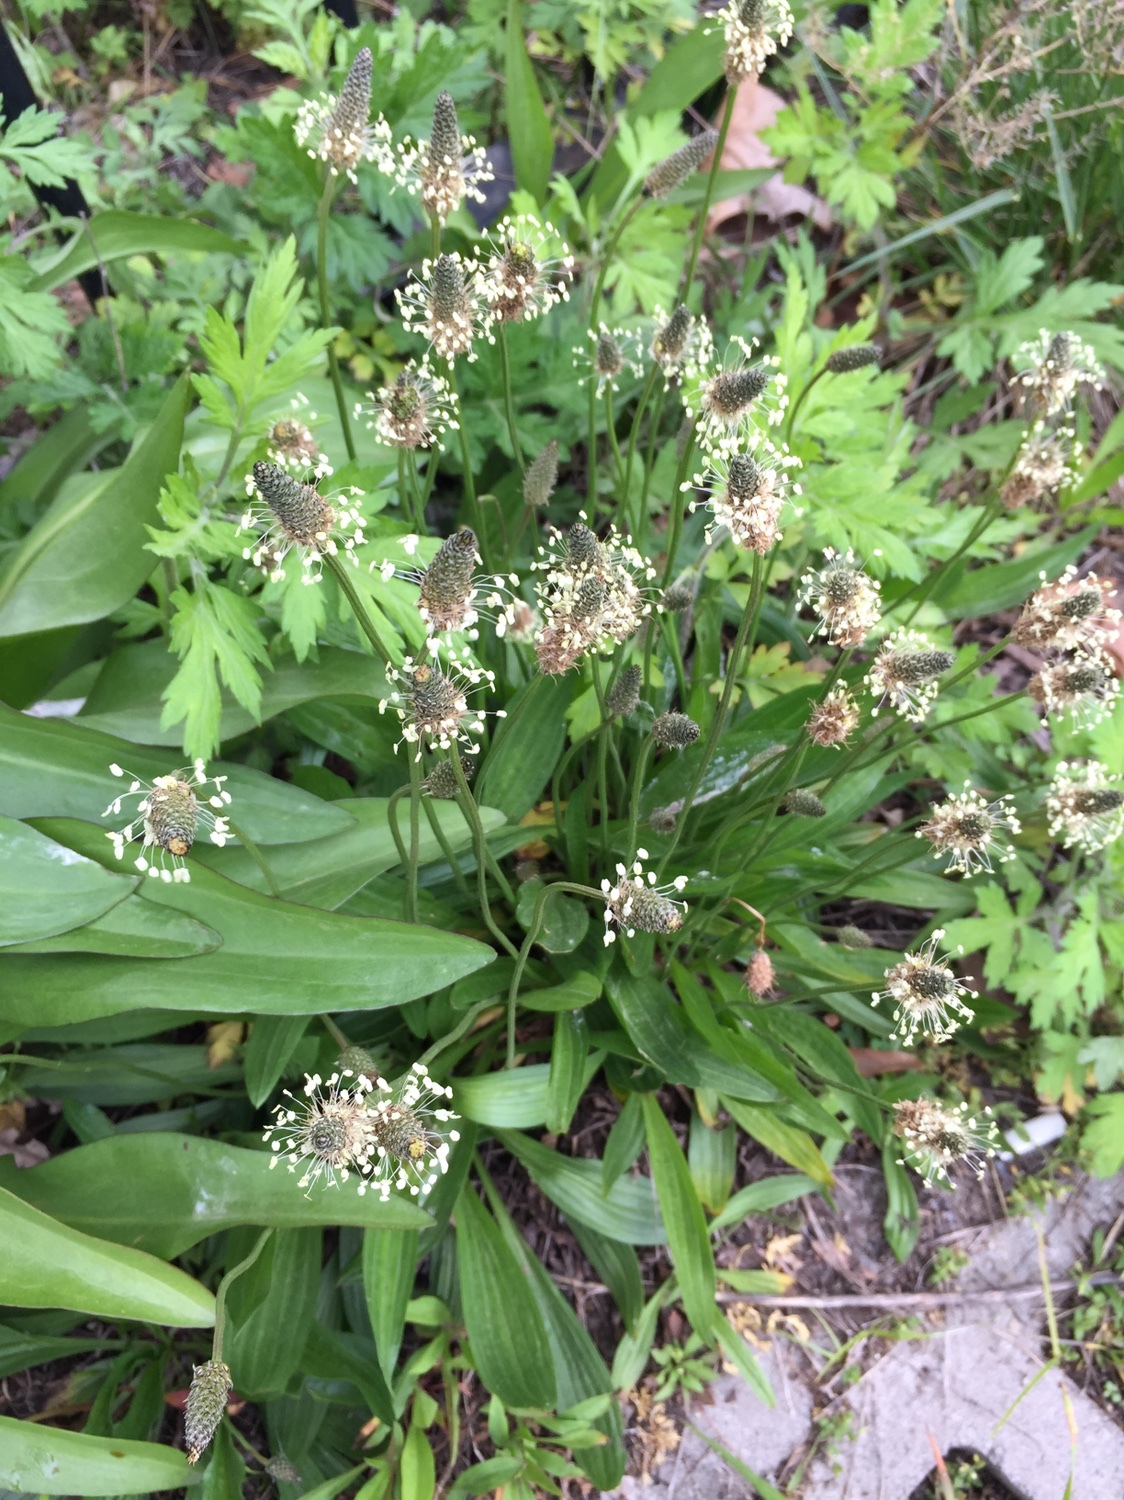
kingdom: Plantae
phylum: Tracheophyta
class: Magnoliopsida
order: Lamiales
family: Plantaginaceae
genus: Plantago
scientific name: Plantago lanceolata
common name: Ribwort plantain
